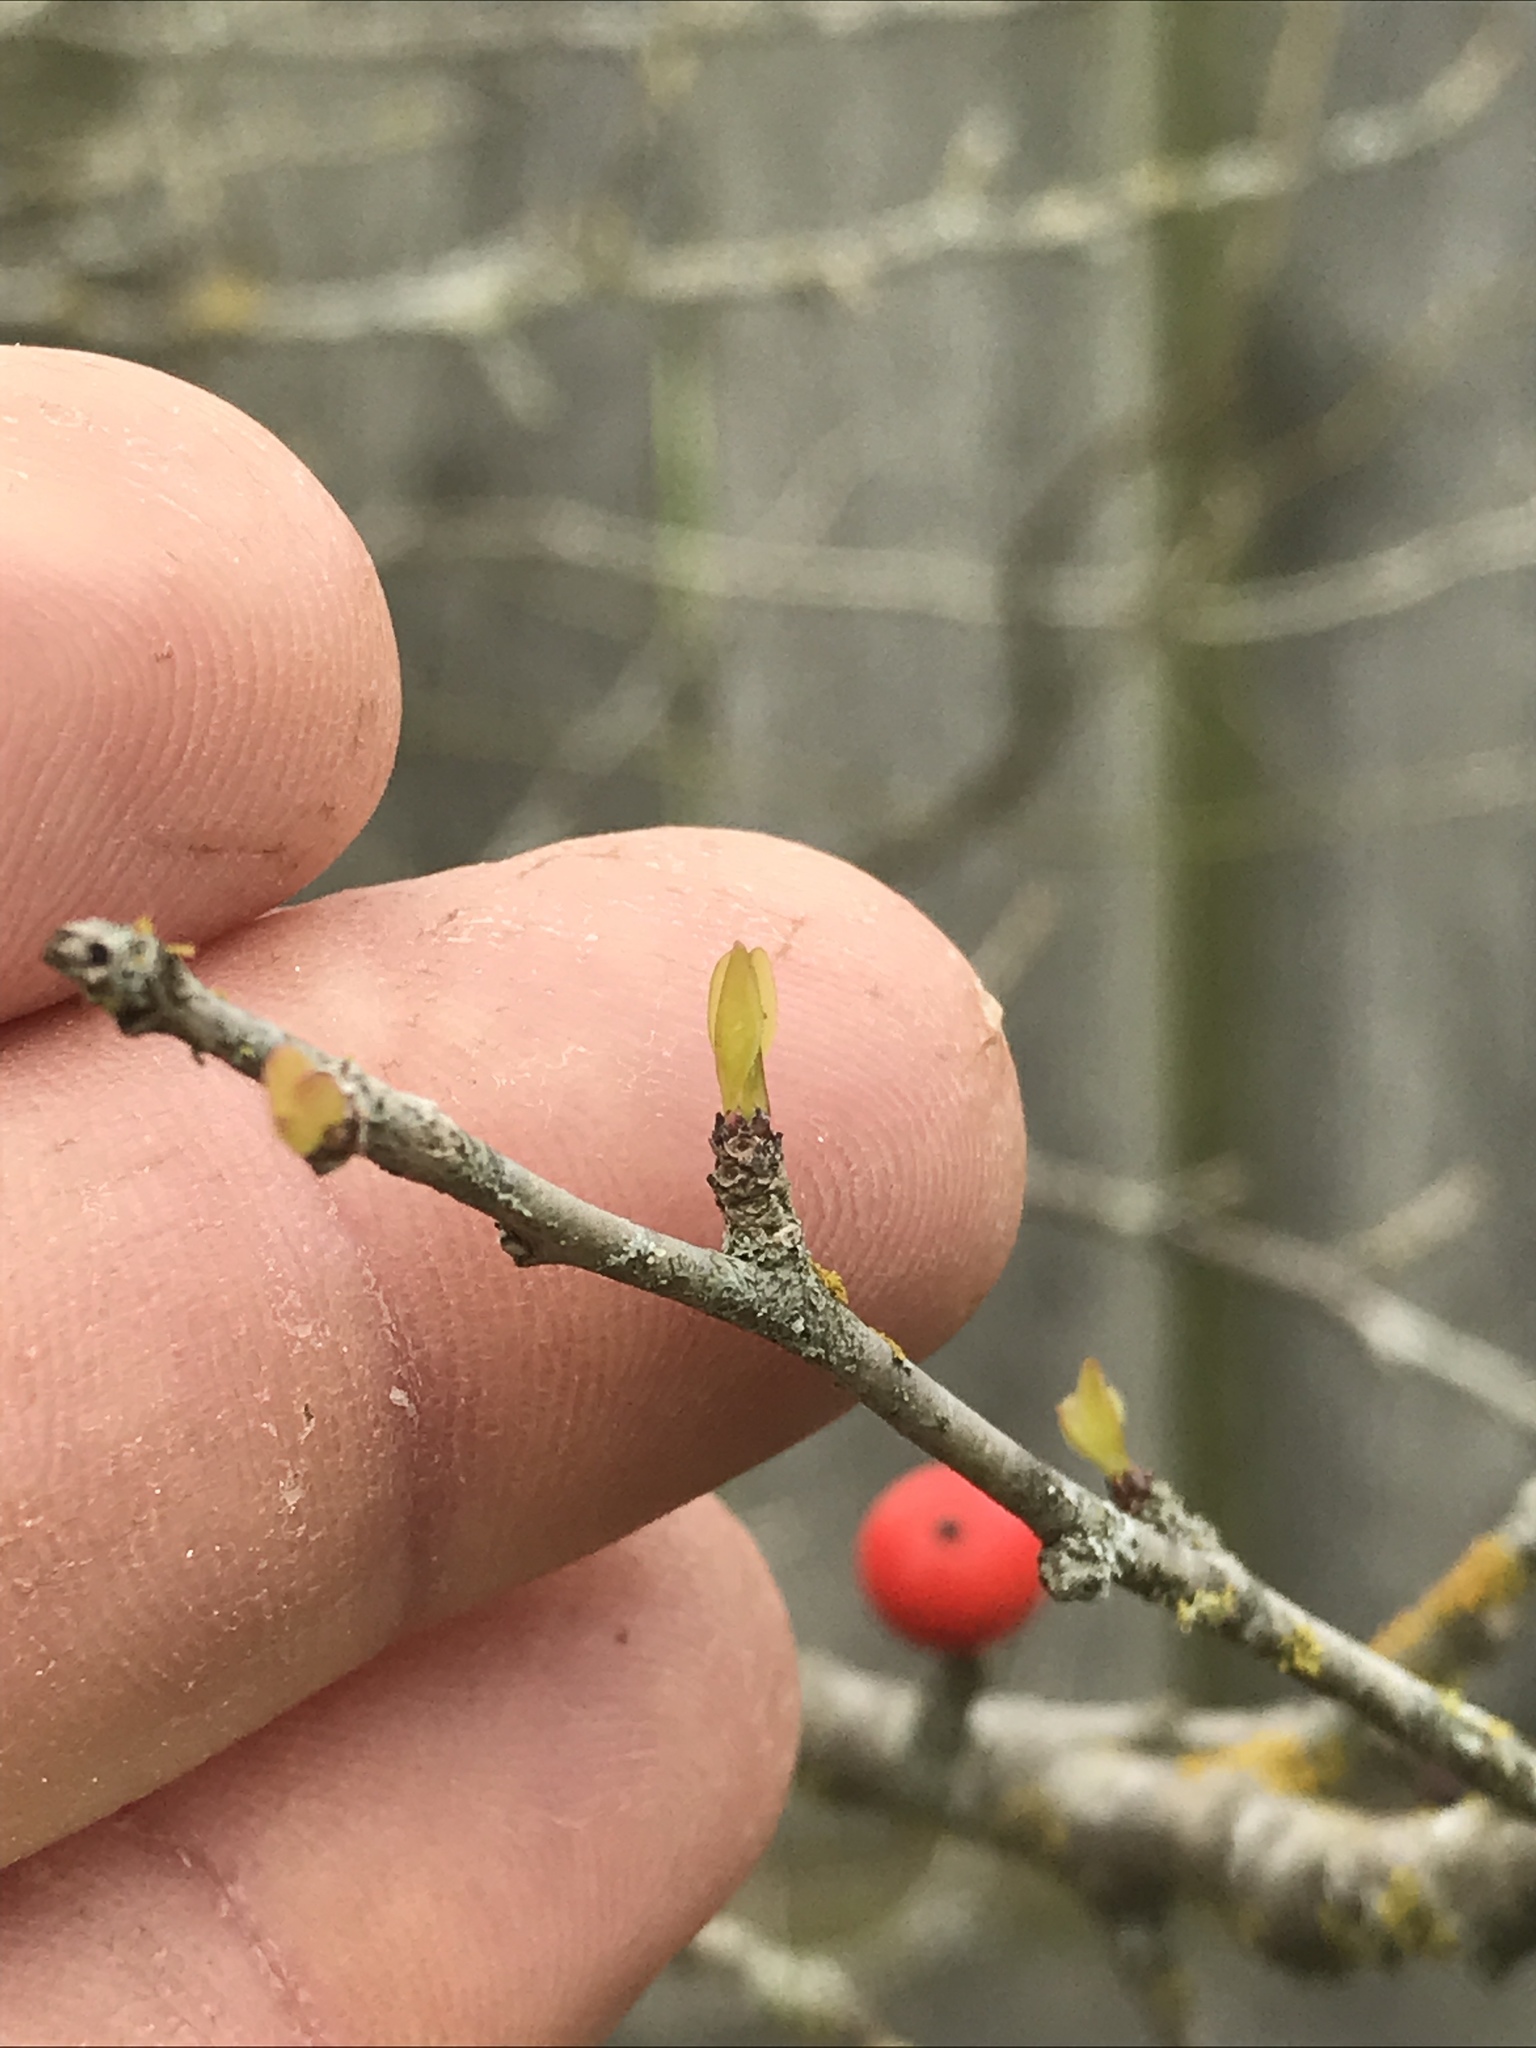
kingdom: Plantae
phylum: Tracheophyta
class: Magnoliopsida
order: Aquifoliales
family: Aquifoliaceae
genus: Ilex
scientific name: Ilex decidua
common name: Possum-haw
